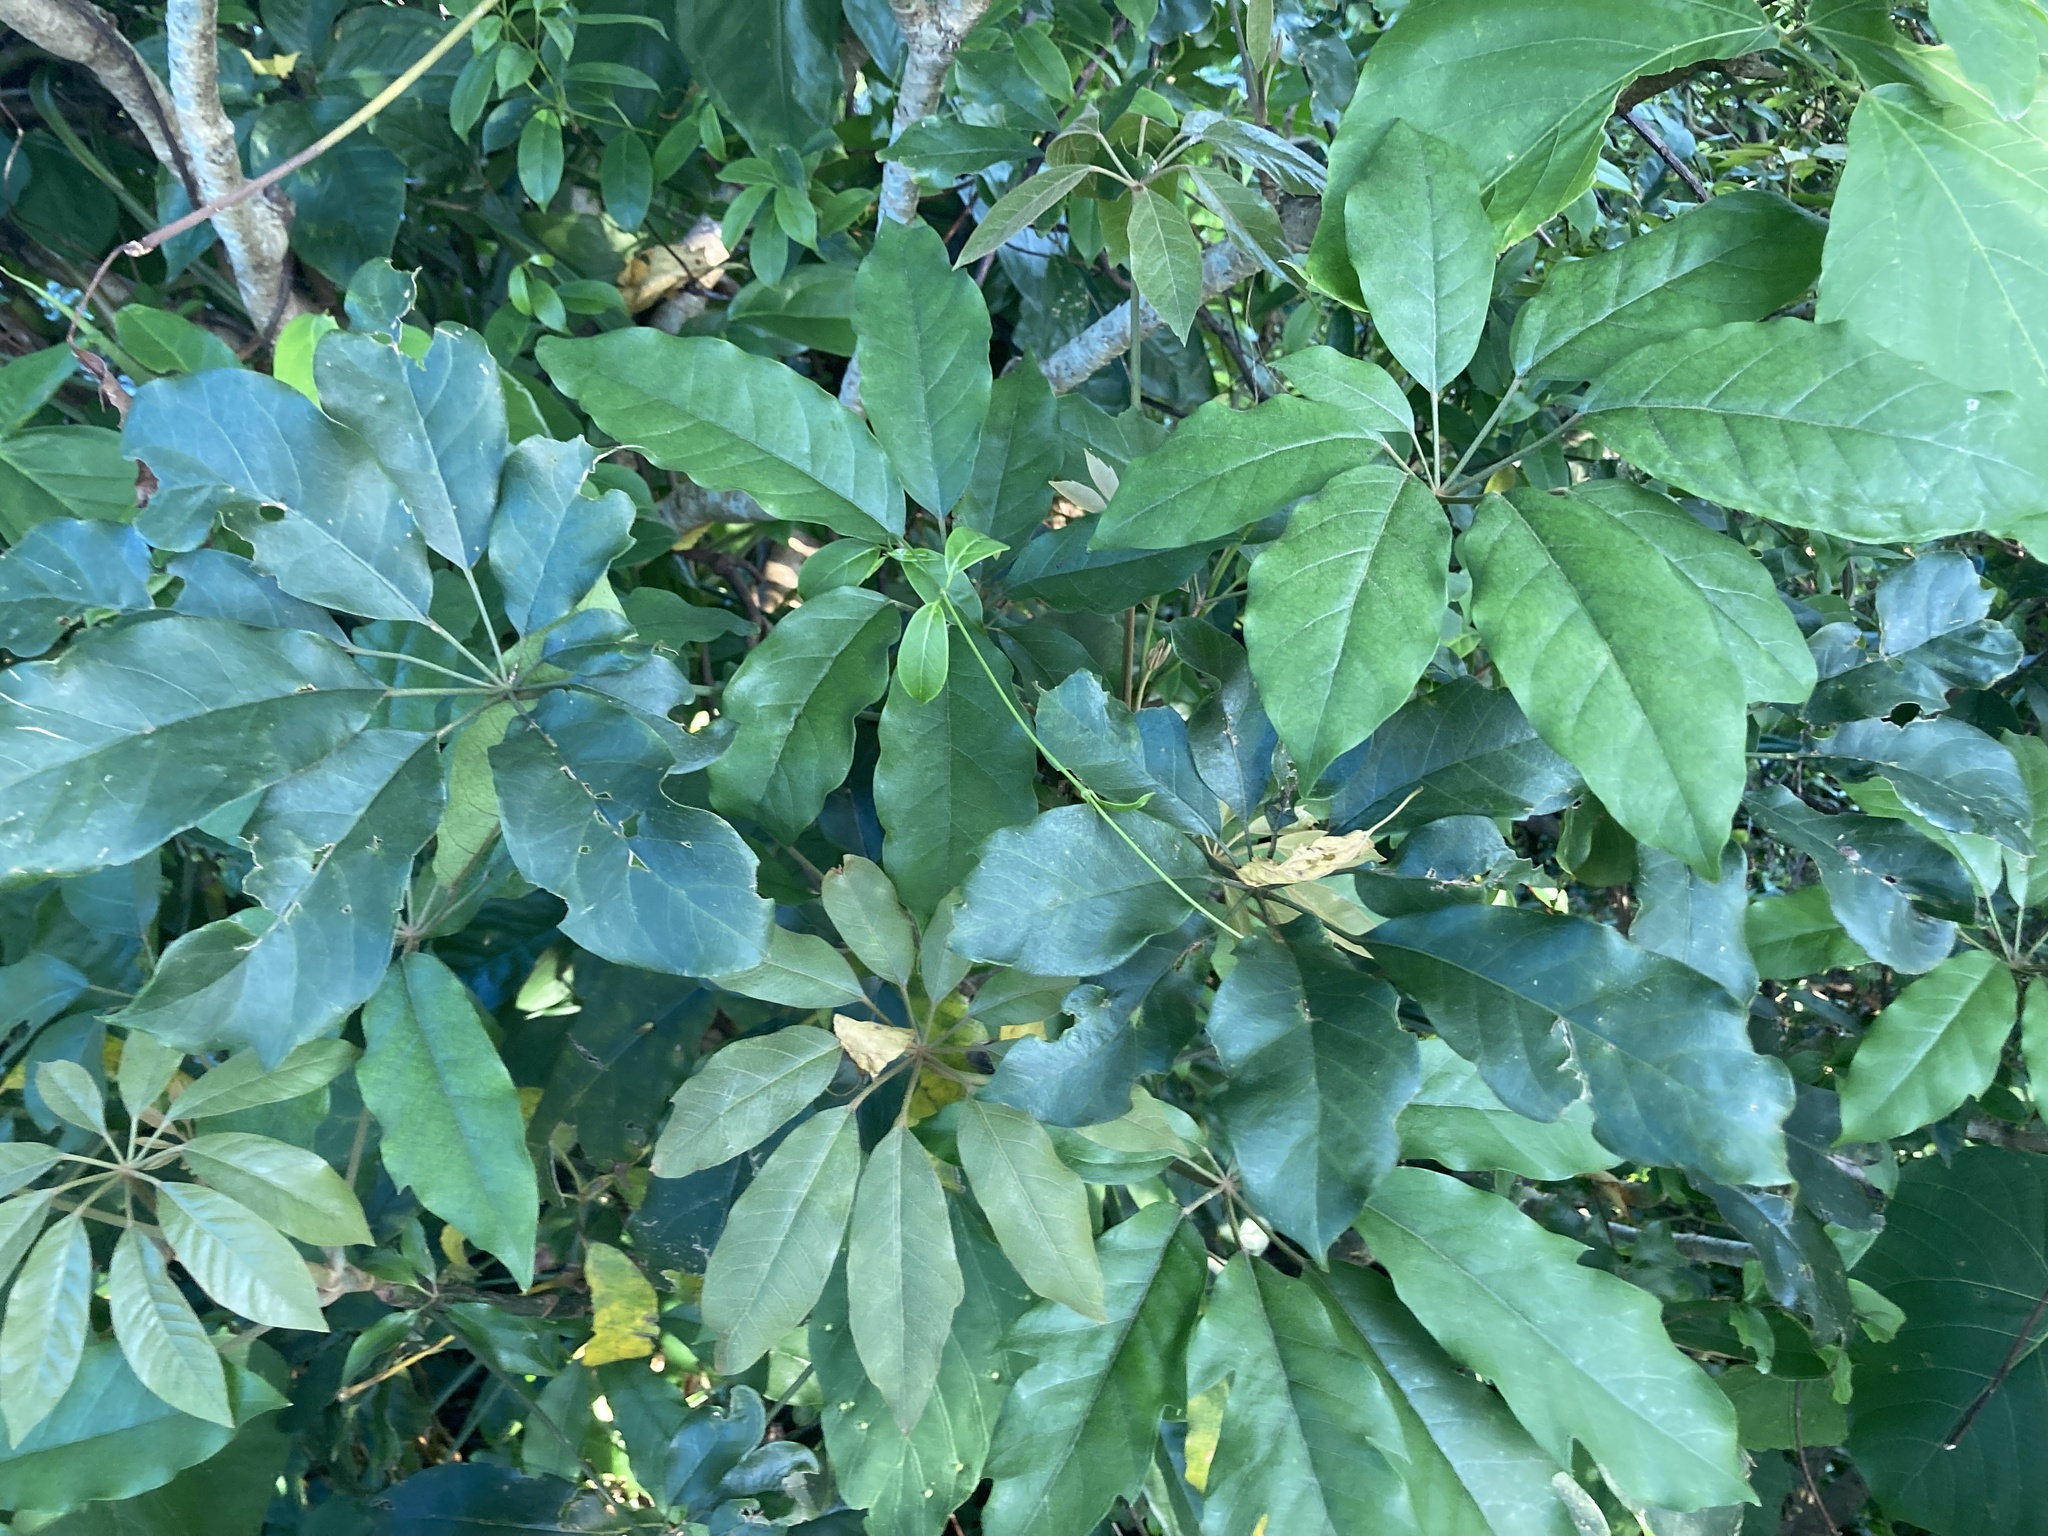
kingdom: Plantae
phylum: Tracheophyta
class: Magnoliopsida
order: Apiales
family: Araliaceae
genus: Heptapleurum
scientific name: Heptapleurum heptaphyllum
